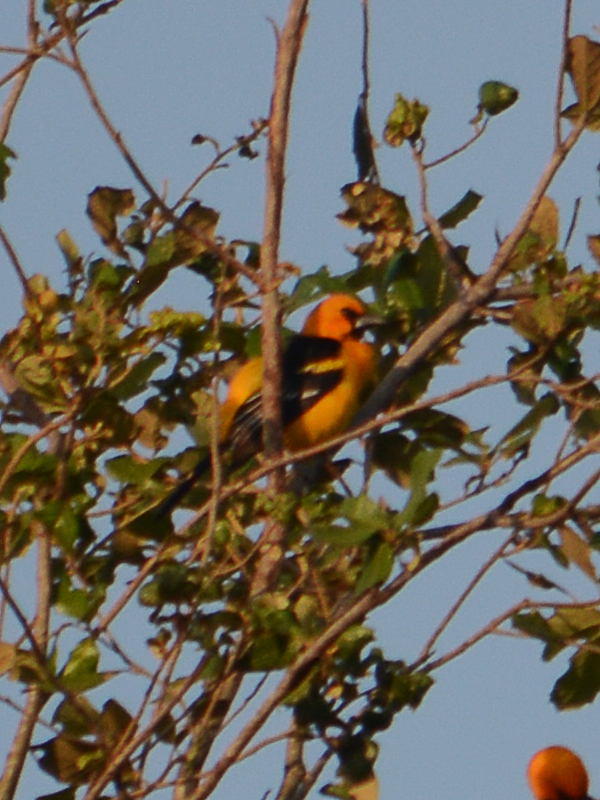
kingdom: Animalia
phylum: Chordata
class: Aves
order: Passeriformes
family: Icteridae
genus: Icterus
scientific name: Icterus gularis
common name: Altamira oriole
